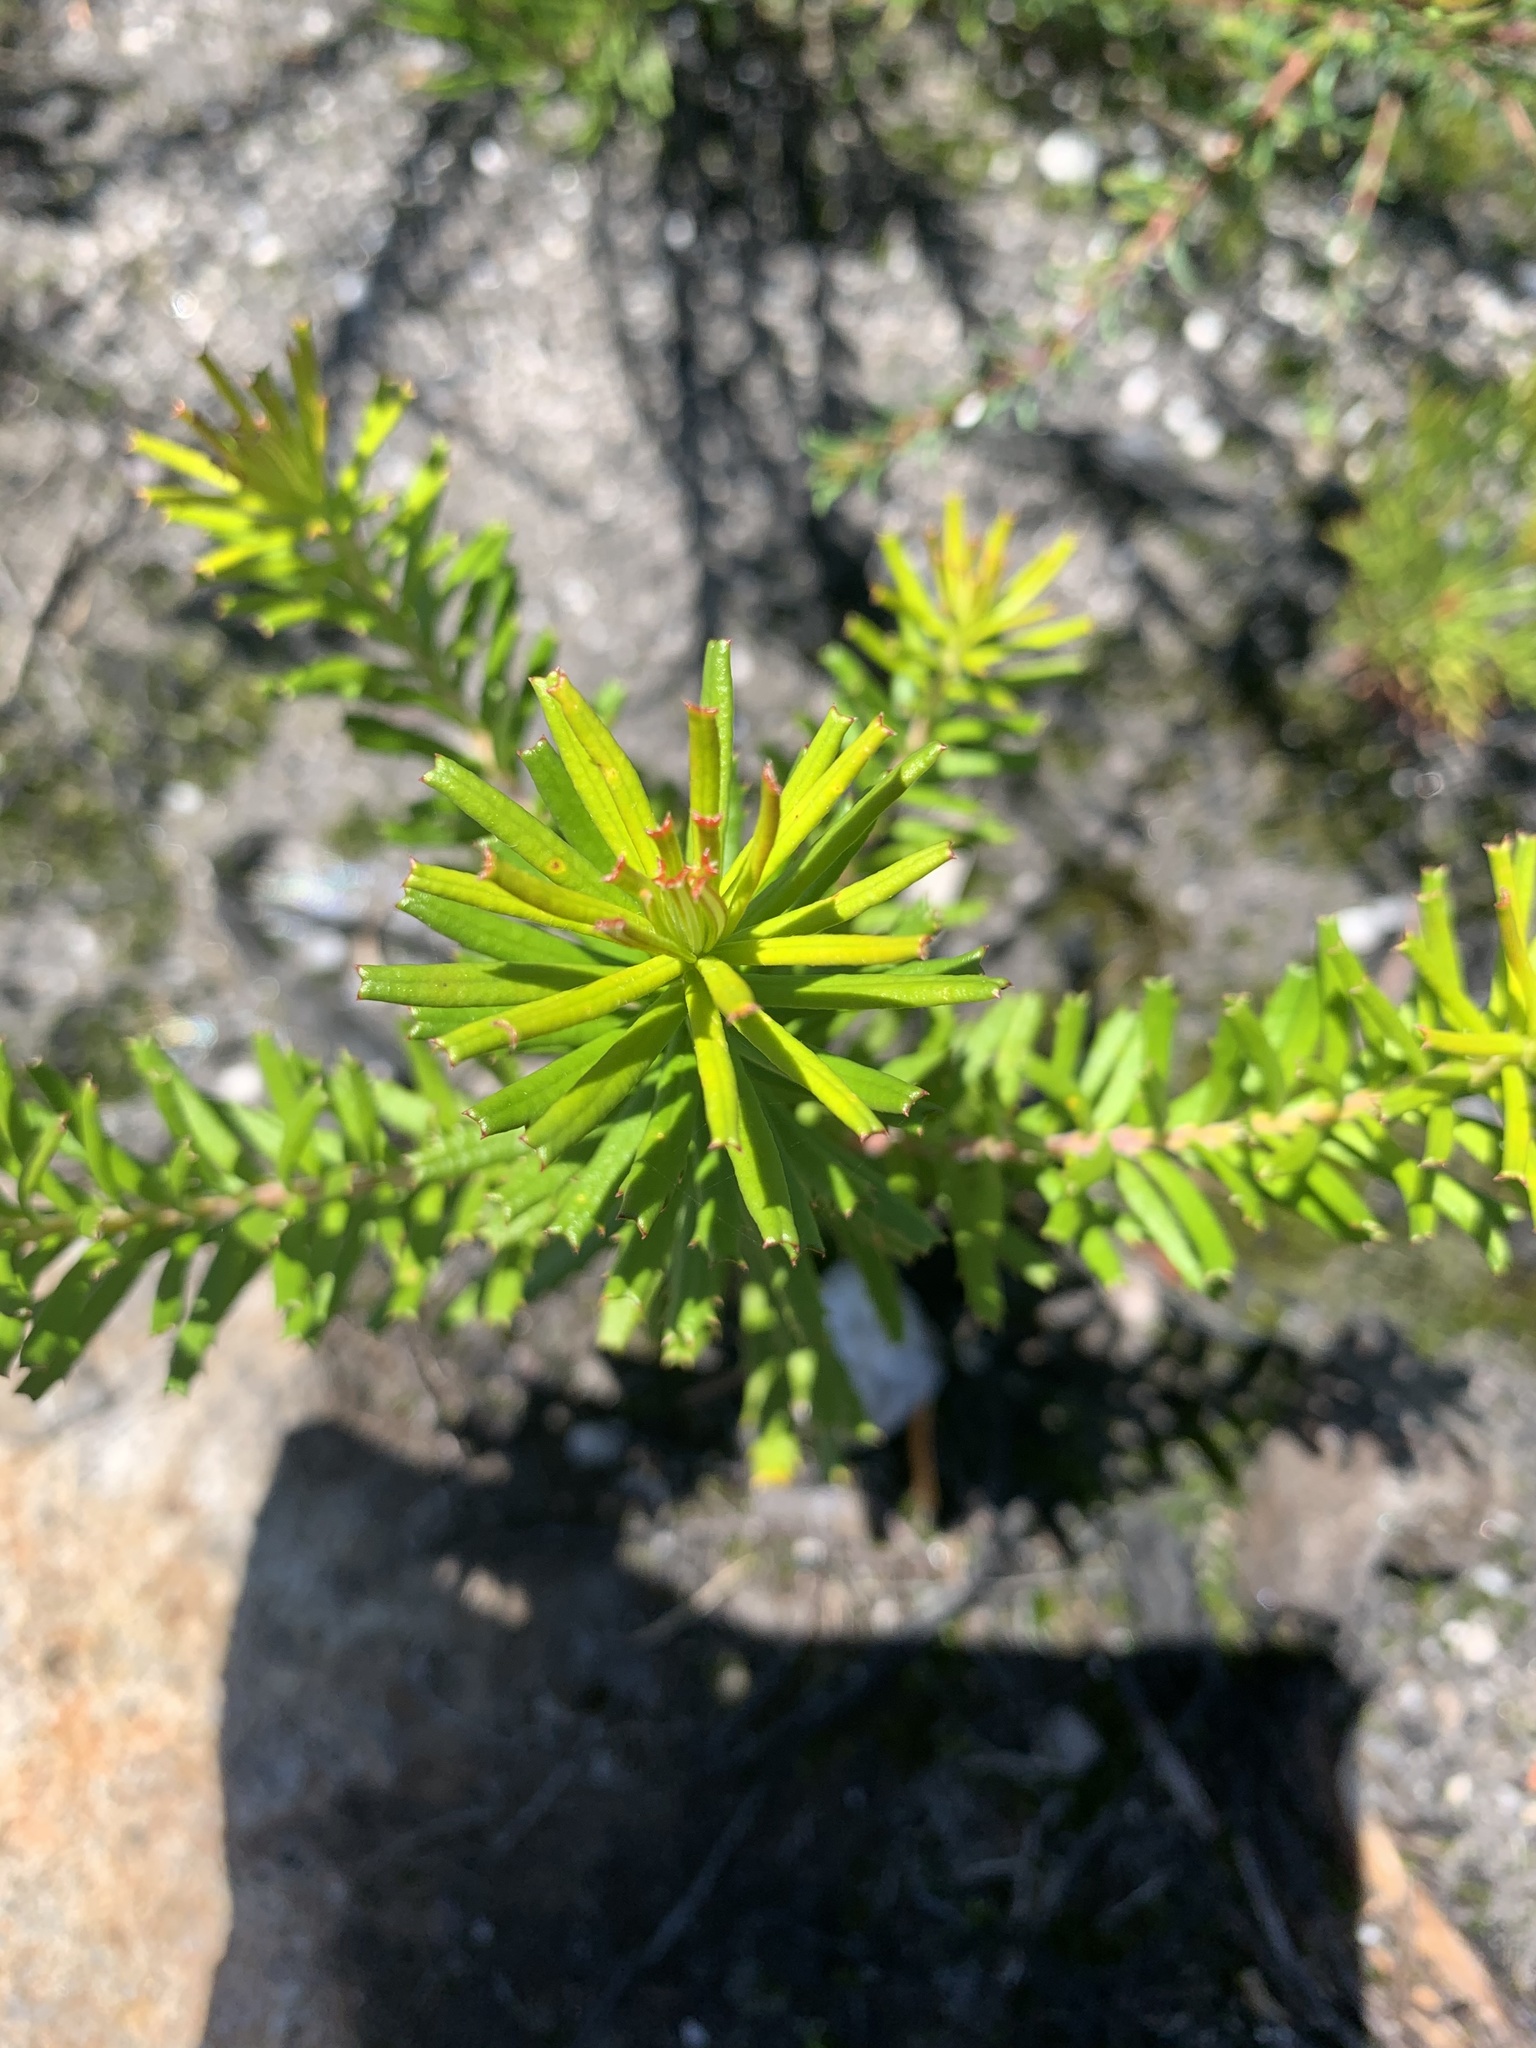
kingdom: Plantae
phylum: Tracheophyta
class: Magnoliopsida
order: Proteales
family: Proteaceae
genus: Banksia
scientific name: Banksia ericifolia
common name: Heath-leaf banksia
